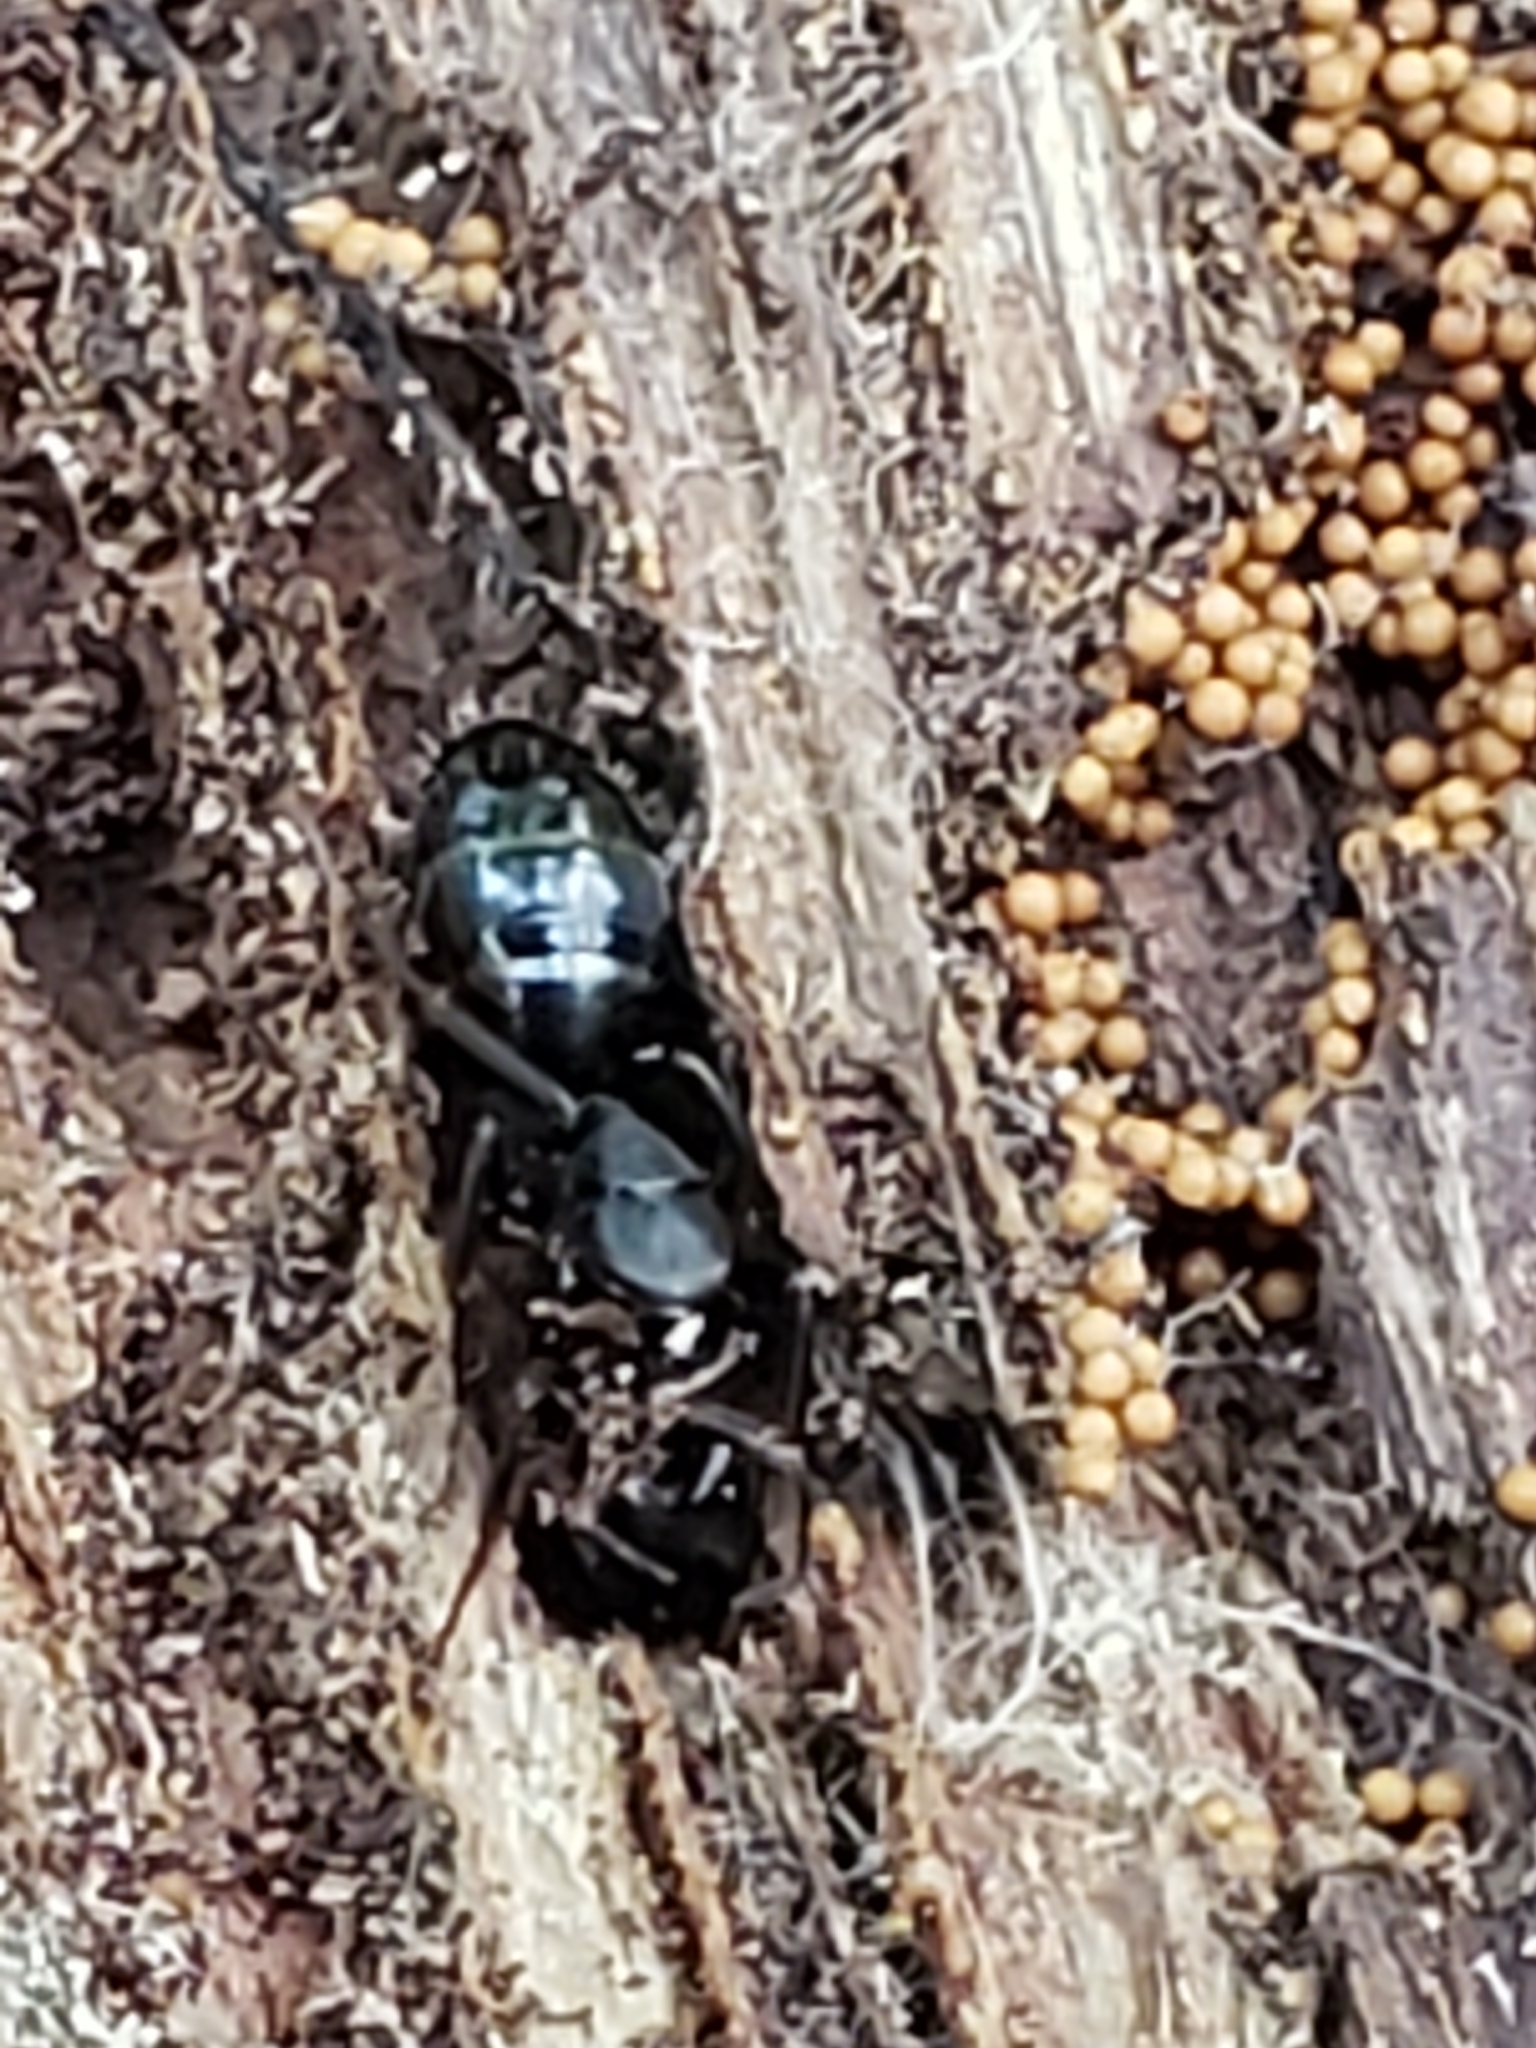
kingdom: Animalia
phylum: Arthropoda
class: Insecta
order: Hymenoptera
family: Formicidae
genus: Camponotus
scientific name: Camponotus pennsylvanicus
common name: Black carpenter ant
